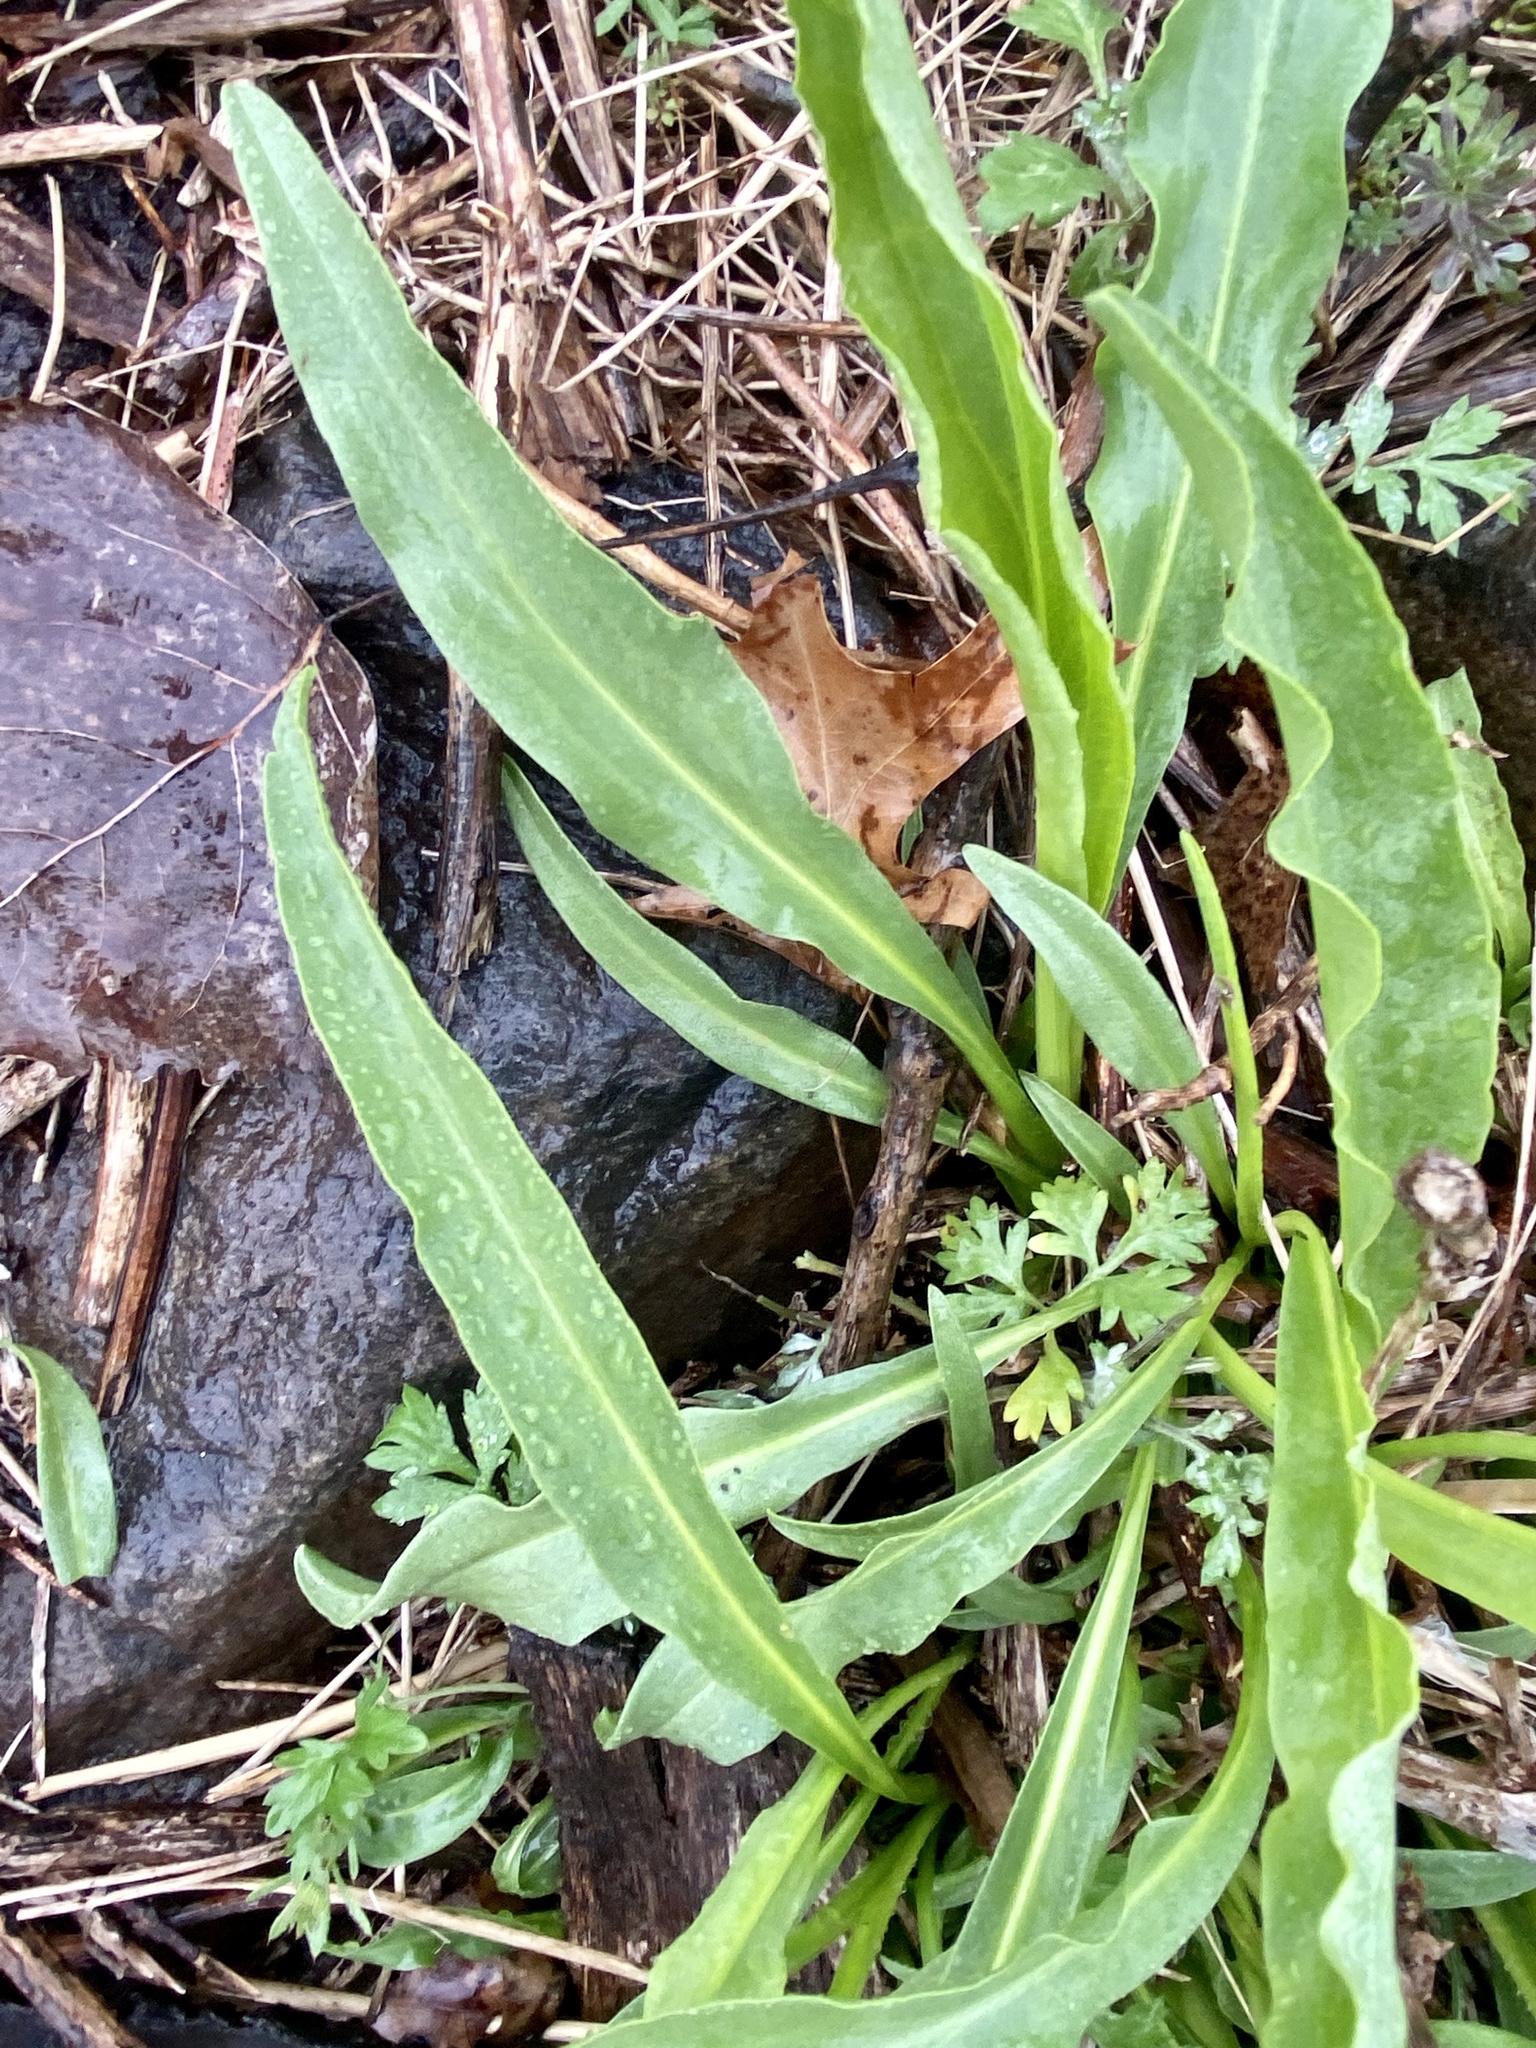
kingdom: Plantae
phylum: Tracheophyta
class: Magnoliopsida
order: Asterales
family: Asteraceae
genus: Solidago
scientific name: Solidago sempervirens
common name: Salt-marsh goldenrod
